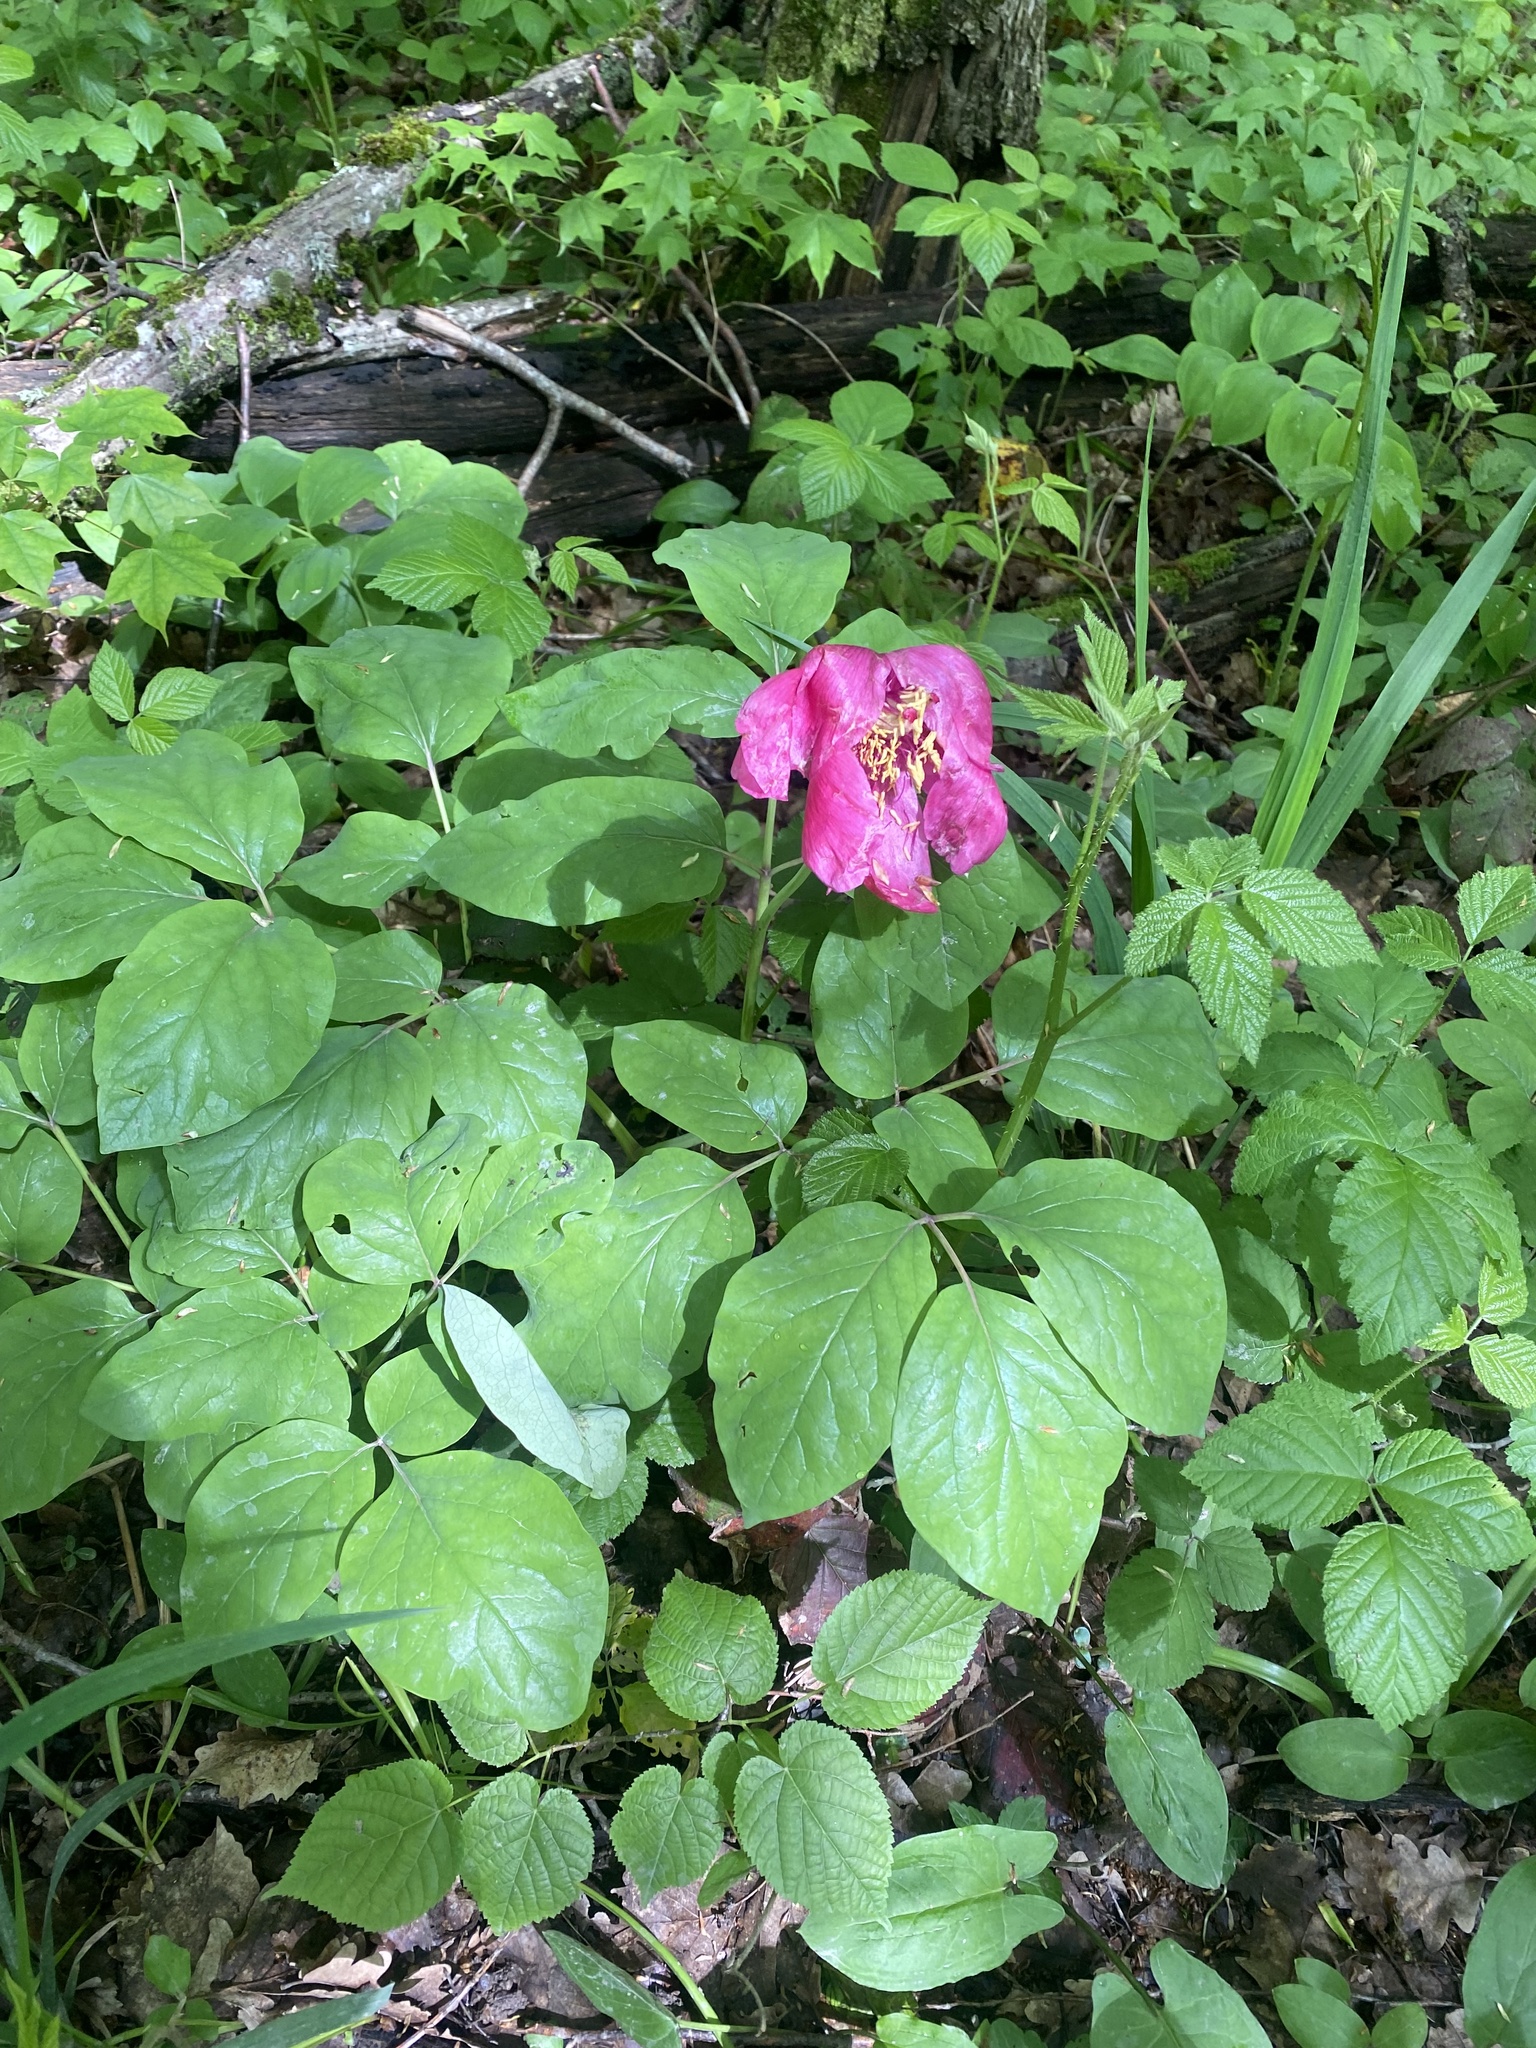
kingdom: Plantae
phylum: Tracheophyta
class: Magnoliopsida
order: Saxifragales
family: Paeoniaceae
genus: Paeonia
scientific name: Paeonia caucasica
